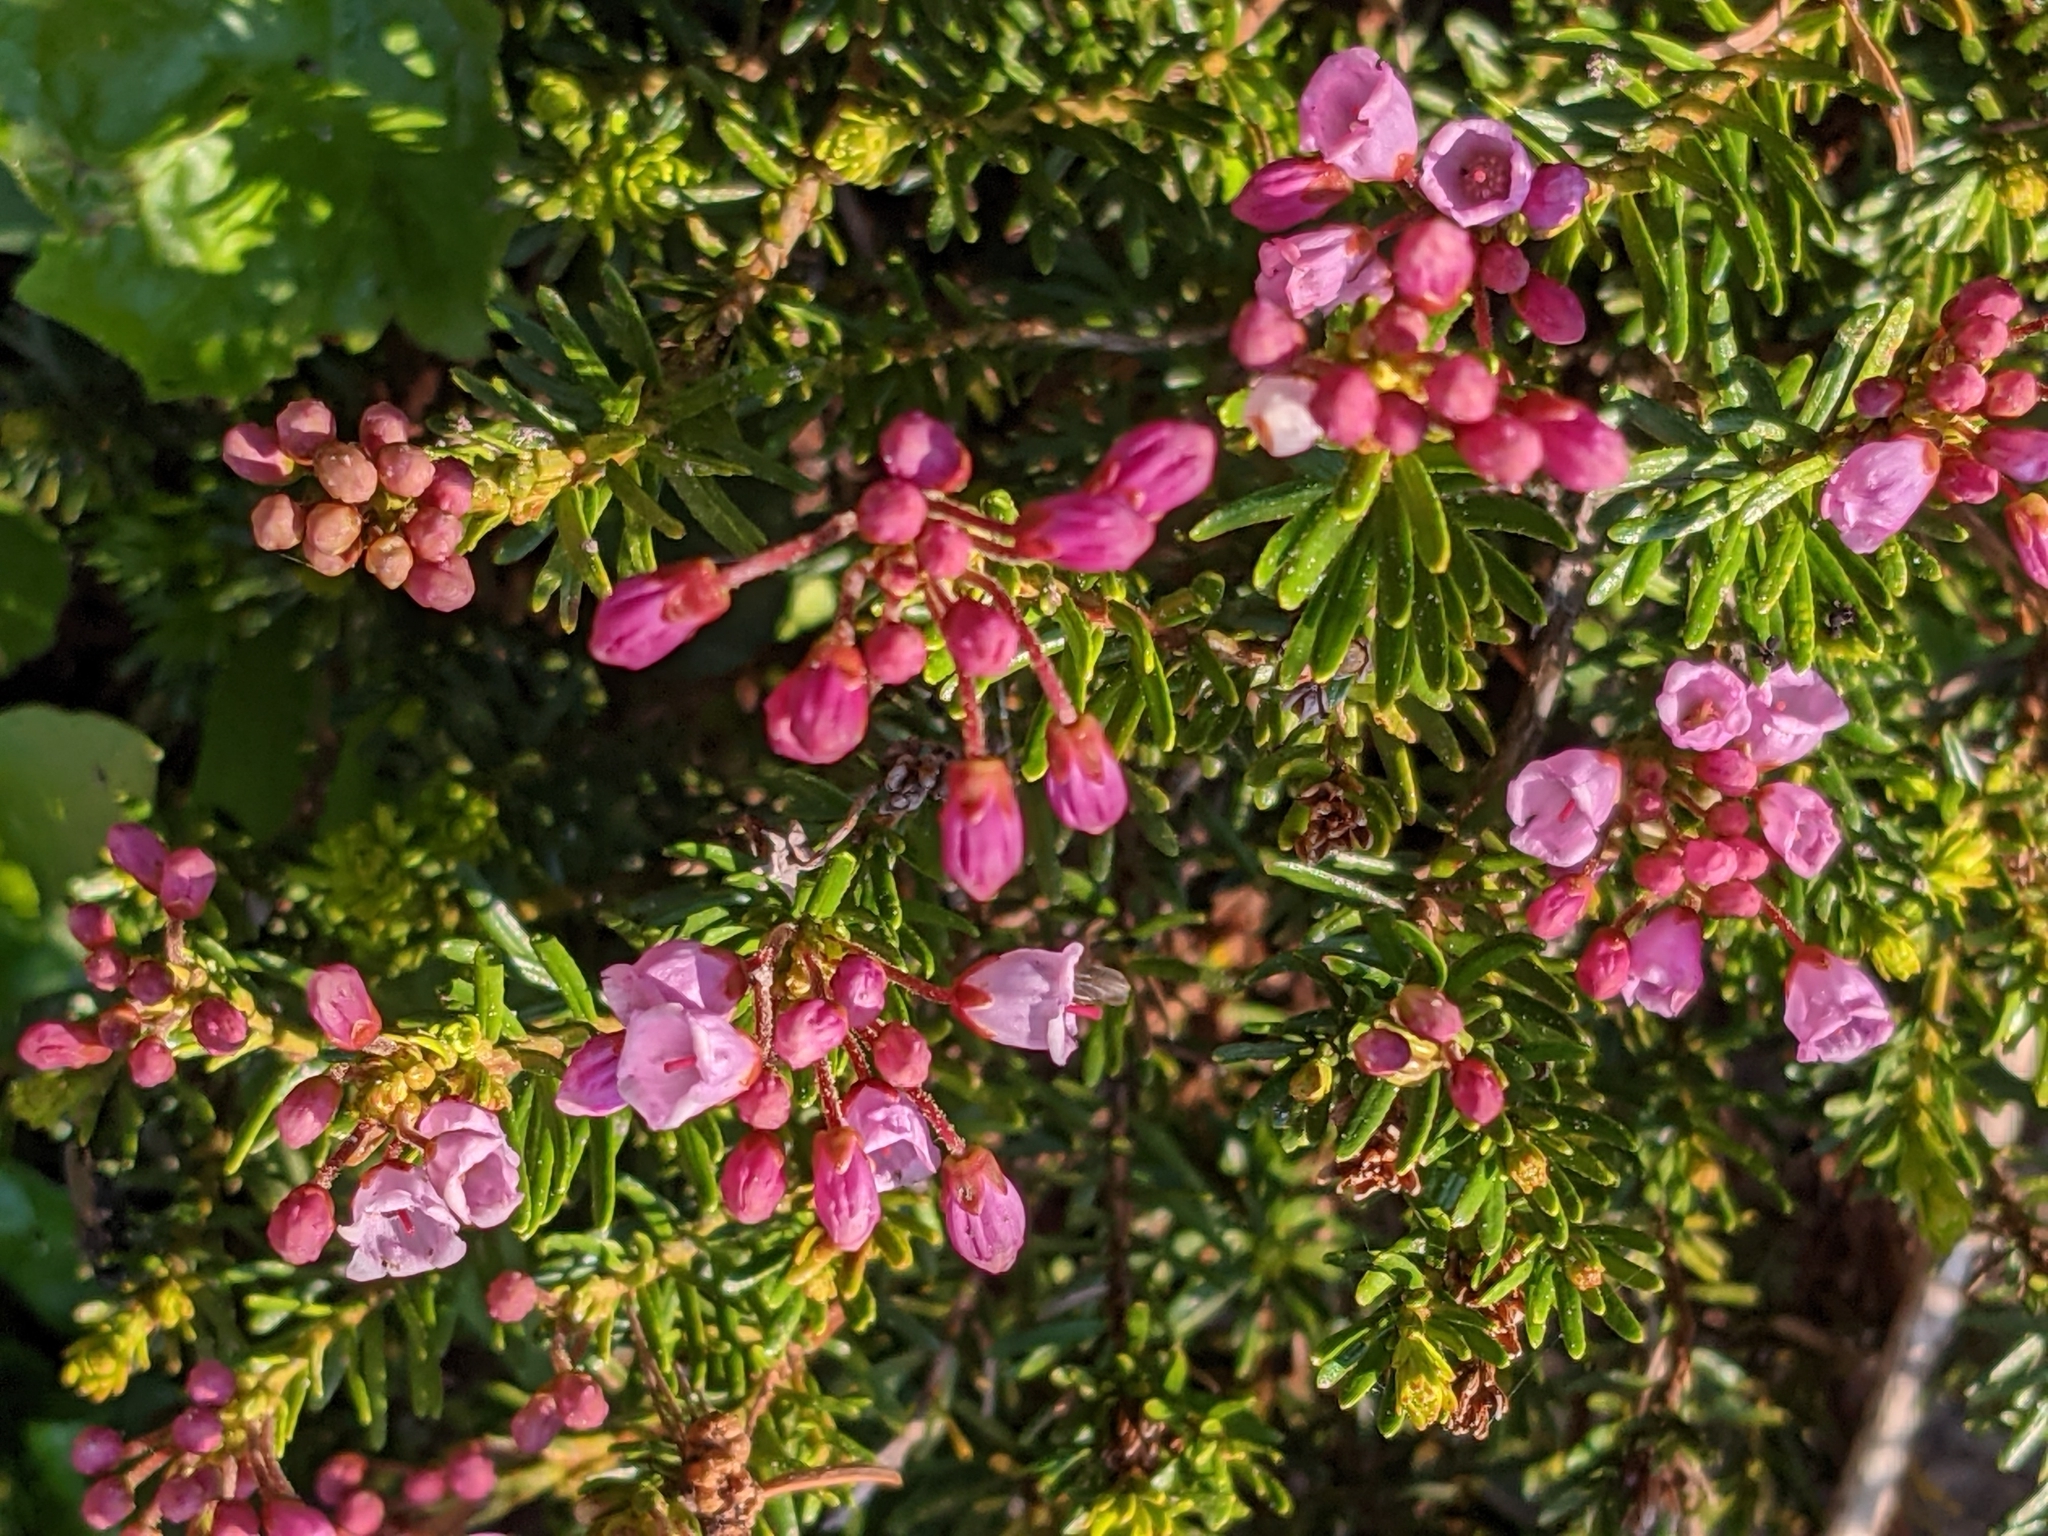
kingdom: Plantae
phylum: Tracheophyta
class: Magnoliopsida
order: Ericales
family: Ericaceae
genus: Phyllodoce
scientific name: Phyllodoce empetriformis
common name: Pink mountain heather
